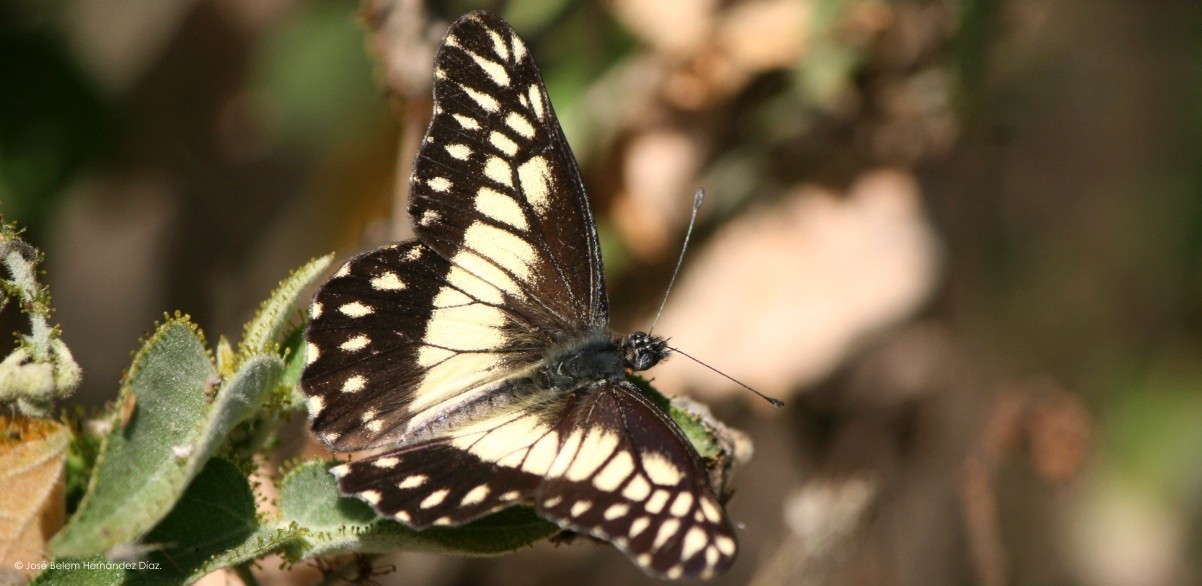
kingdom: Animalia
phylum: Arthropoda
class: Insecta
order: Lepidoptera
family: Pieridae
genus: Archonias
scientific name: Archonias nimbice
